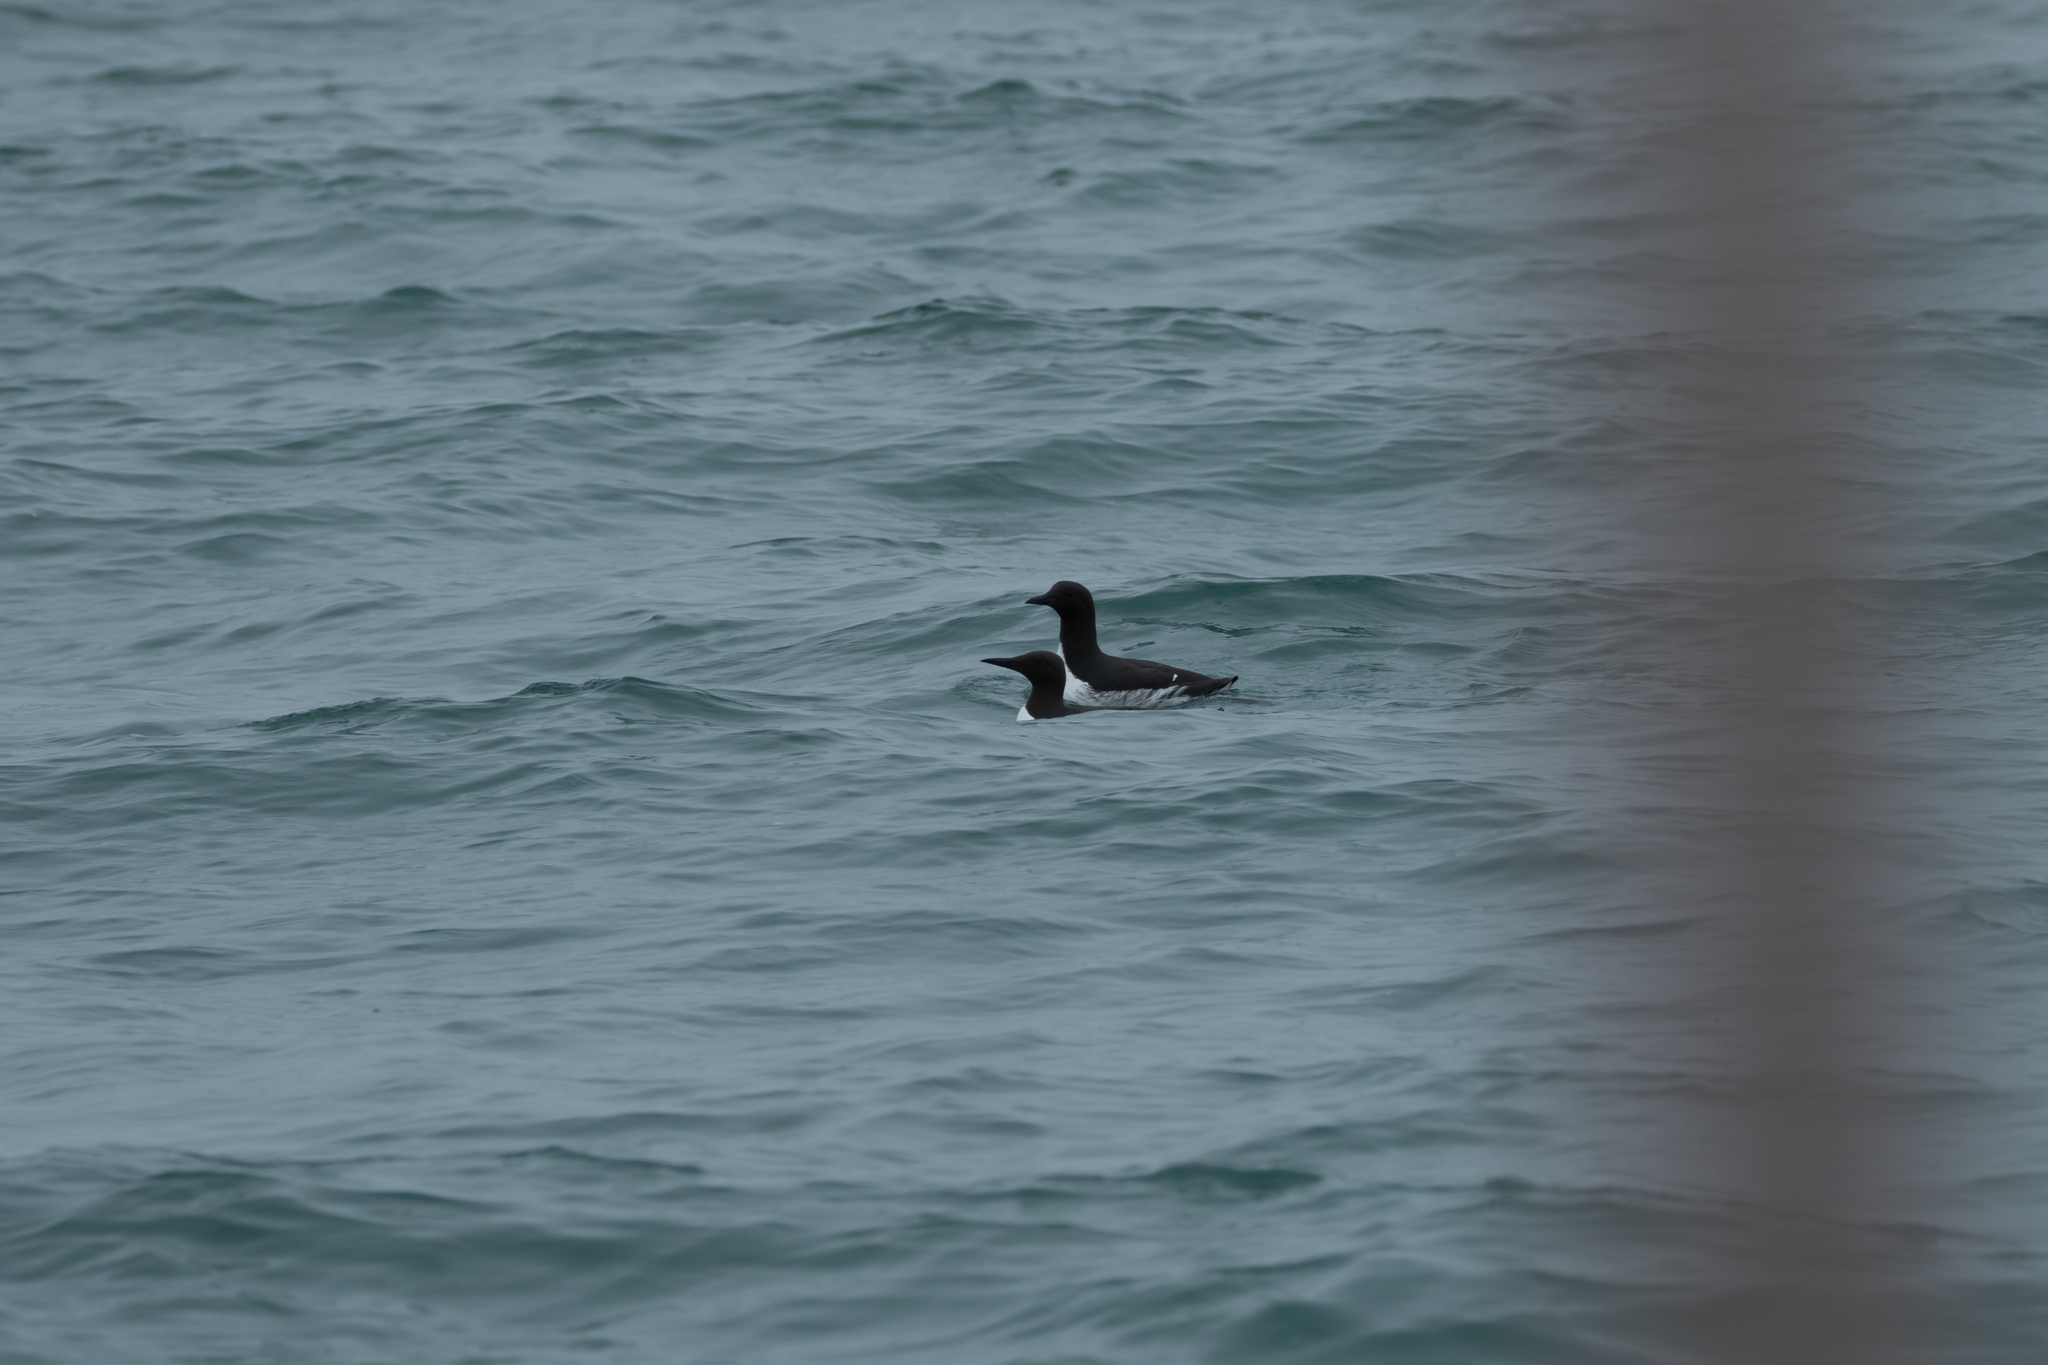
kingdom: Animalia
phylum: Chordata
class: Aves
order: Charadriiformes
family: Alcidae
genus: Uria
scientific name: Uria aalge
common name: Common murre
